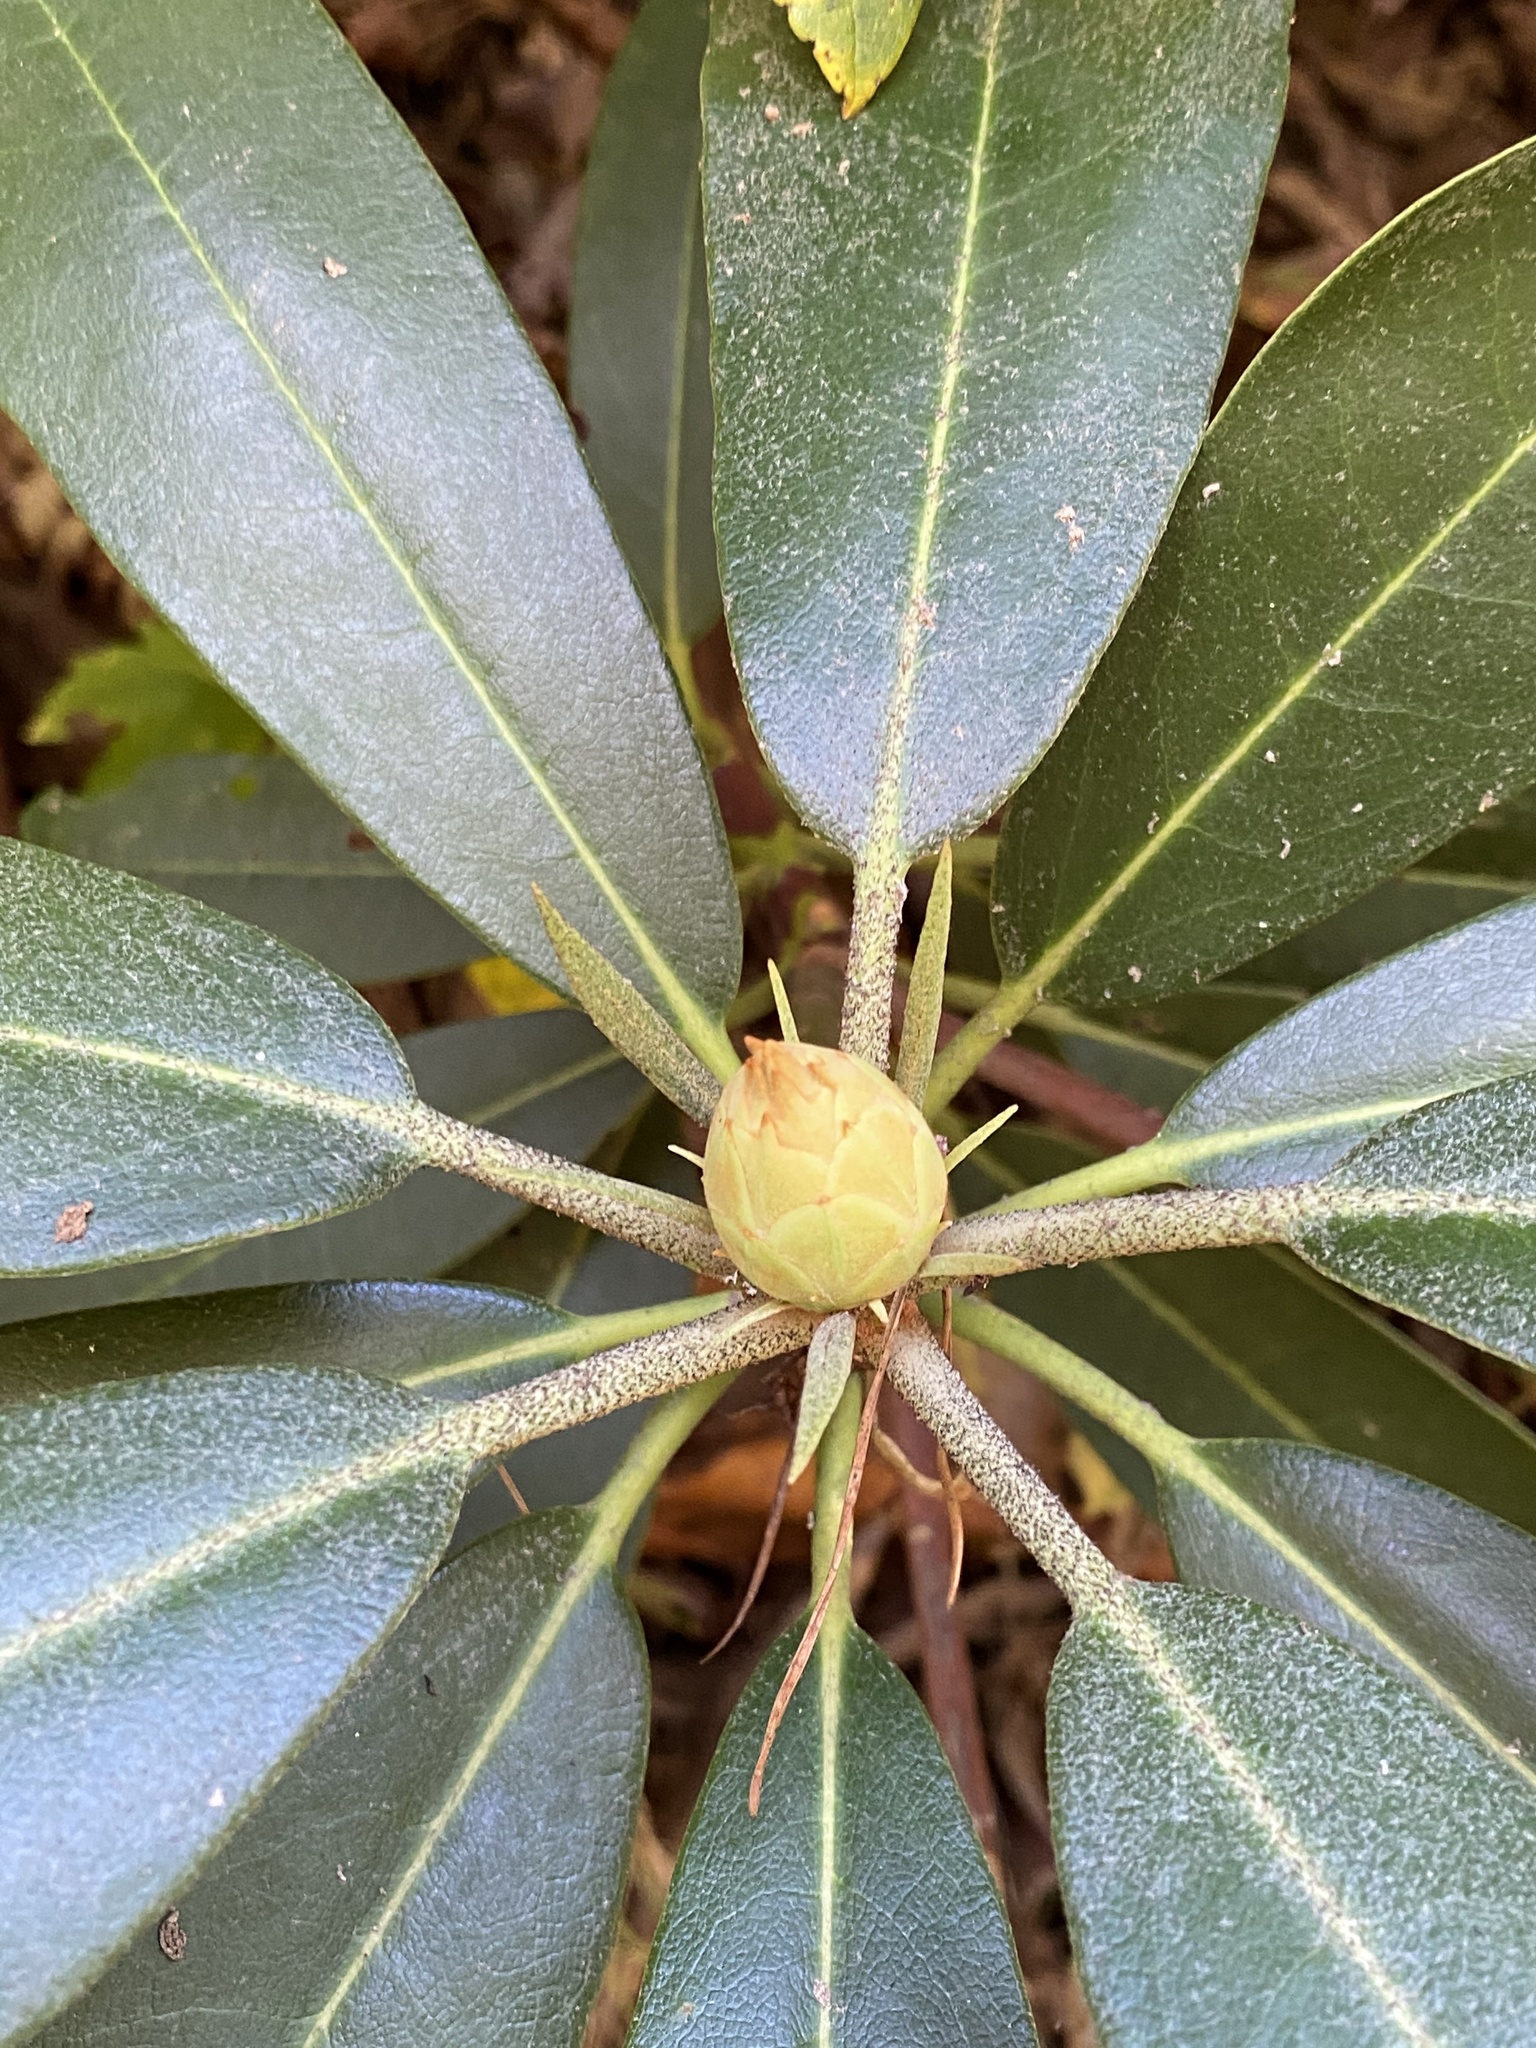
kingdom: Plantae
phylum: Tracheophyta
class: Magnoliopsida
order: Ericales
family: Ericaceae
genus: Rhododendron
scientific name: Rhododendron maximum
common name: Great rhododendron
